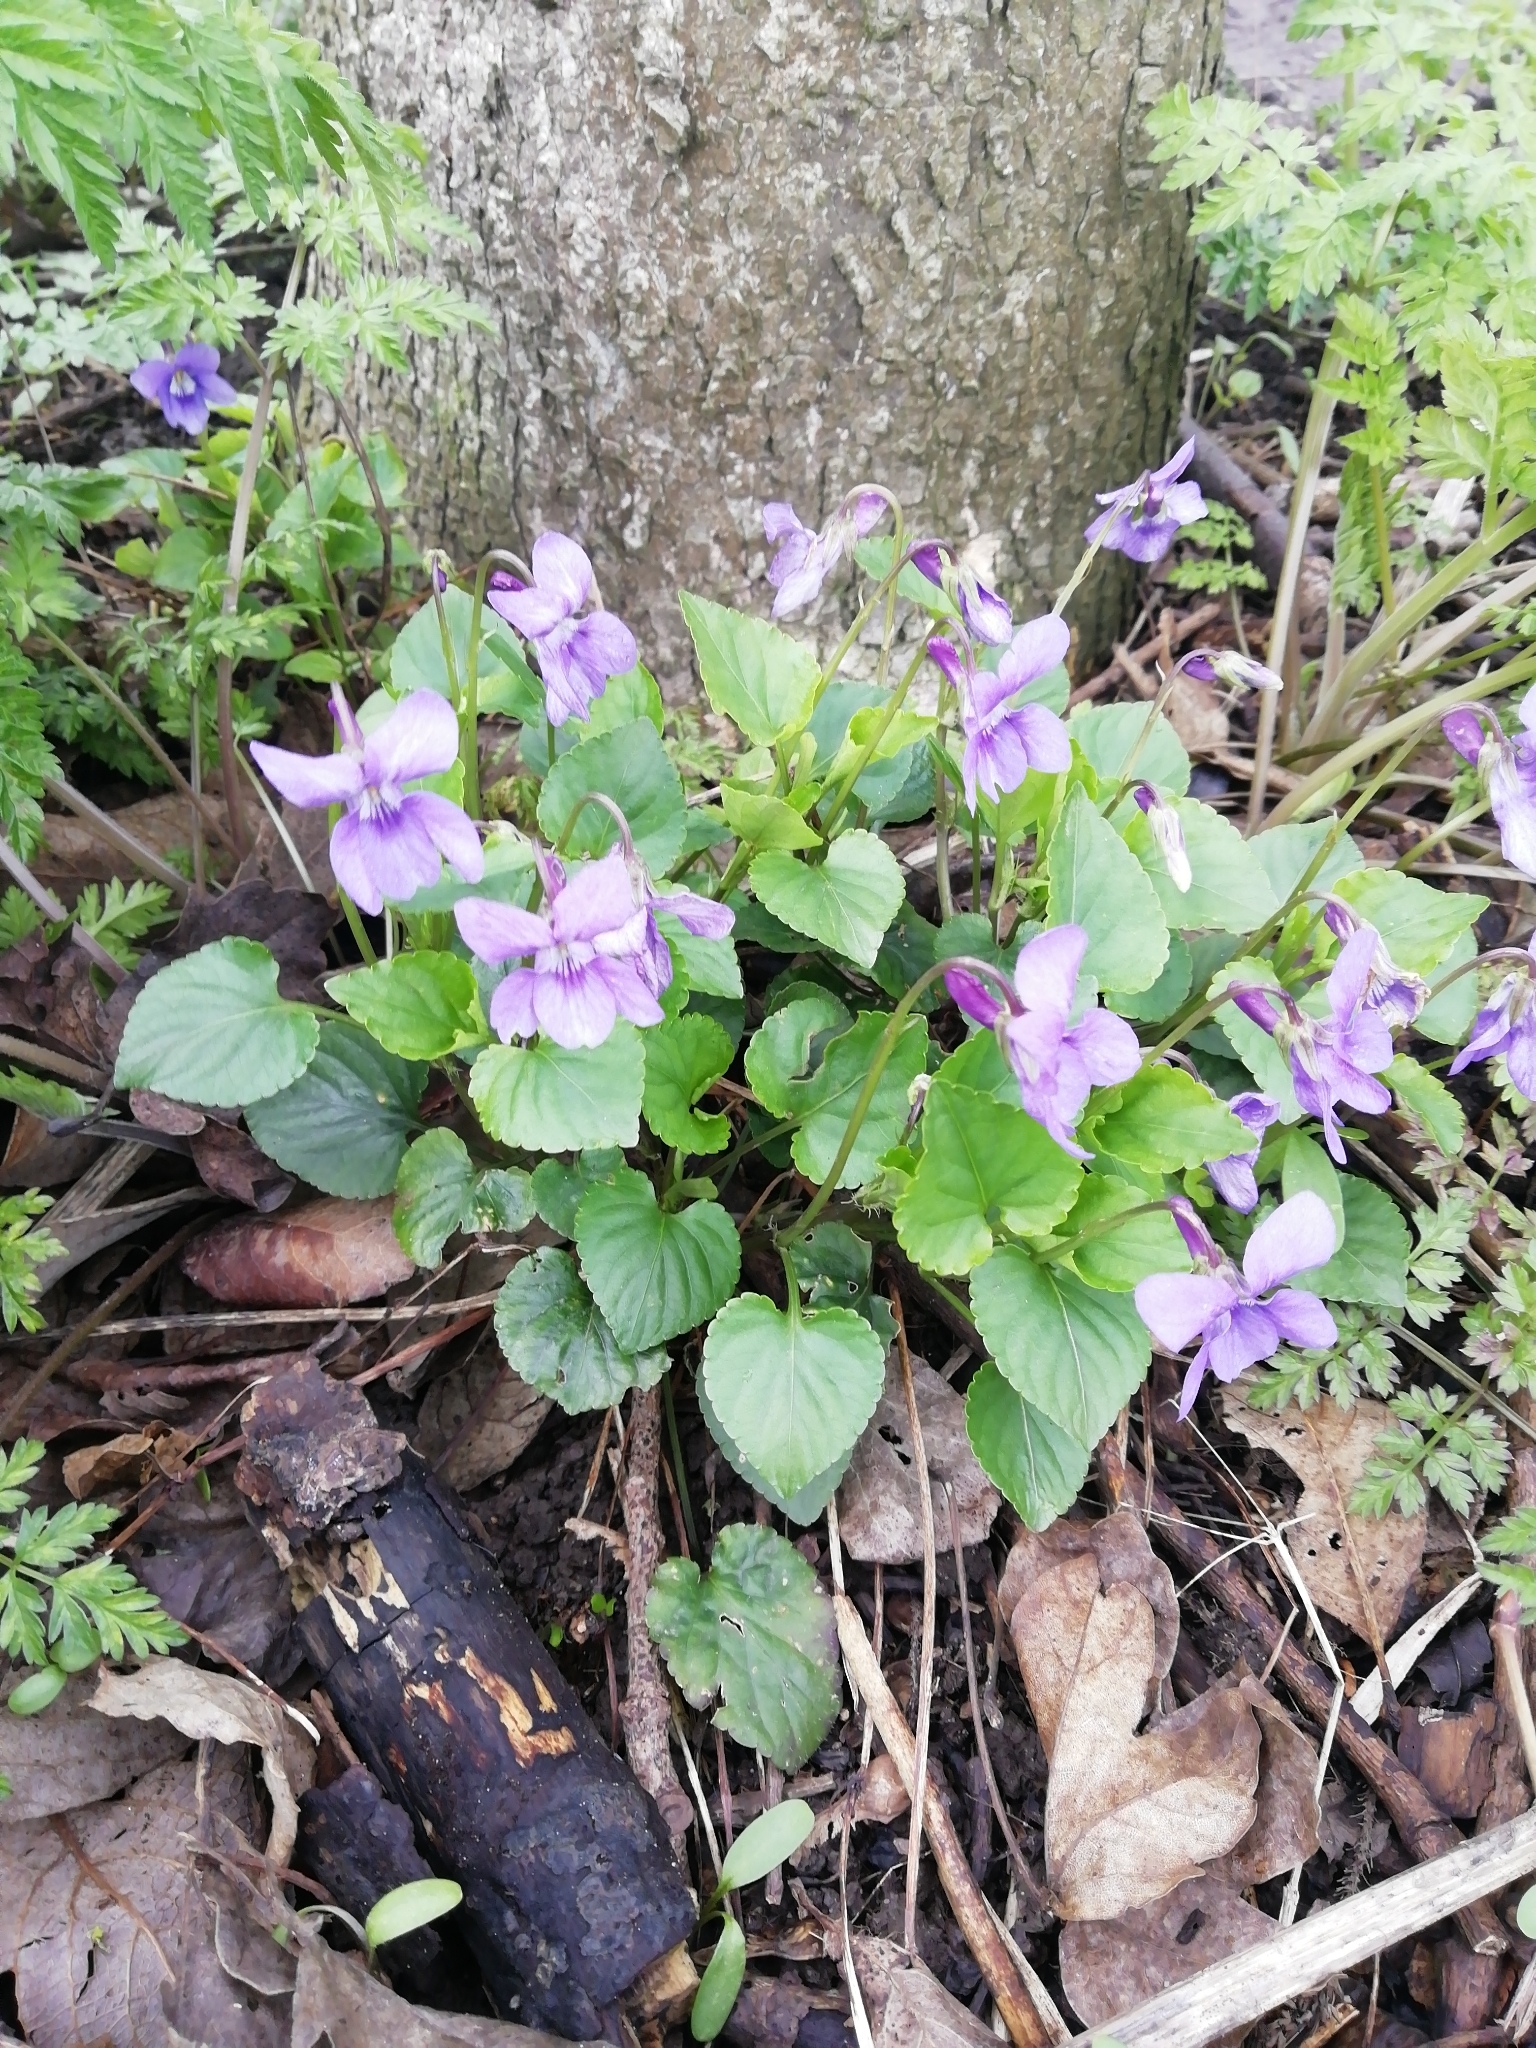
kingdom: Plantae
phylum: Tracheophyta
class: Magnoliopsida
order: Malpighiales
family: Violaceae
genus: Viola
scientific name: Viola reichenbachiana
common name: Early dog-violet
